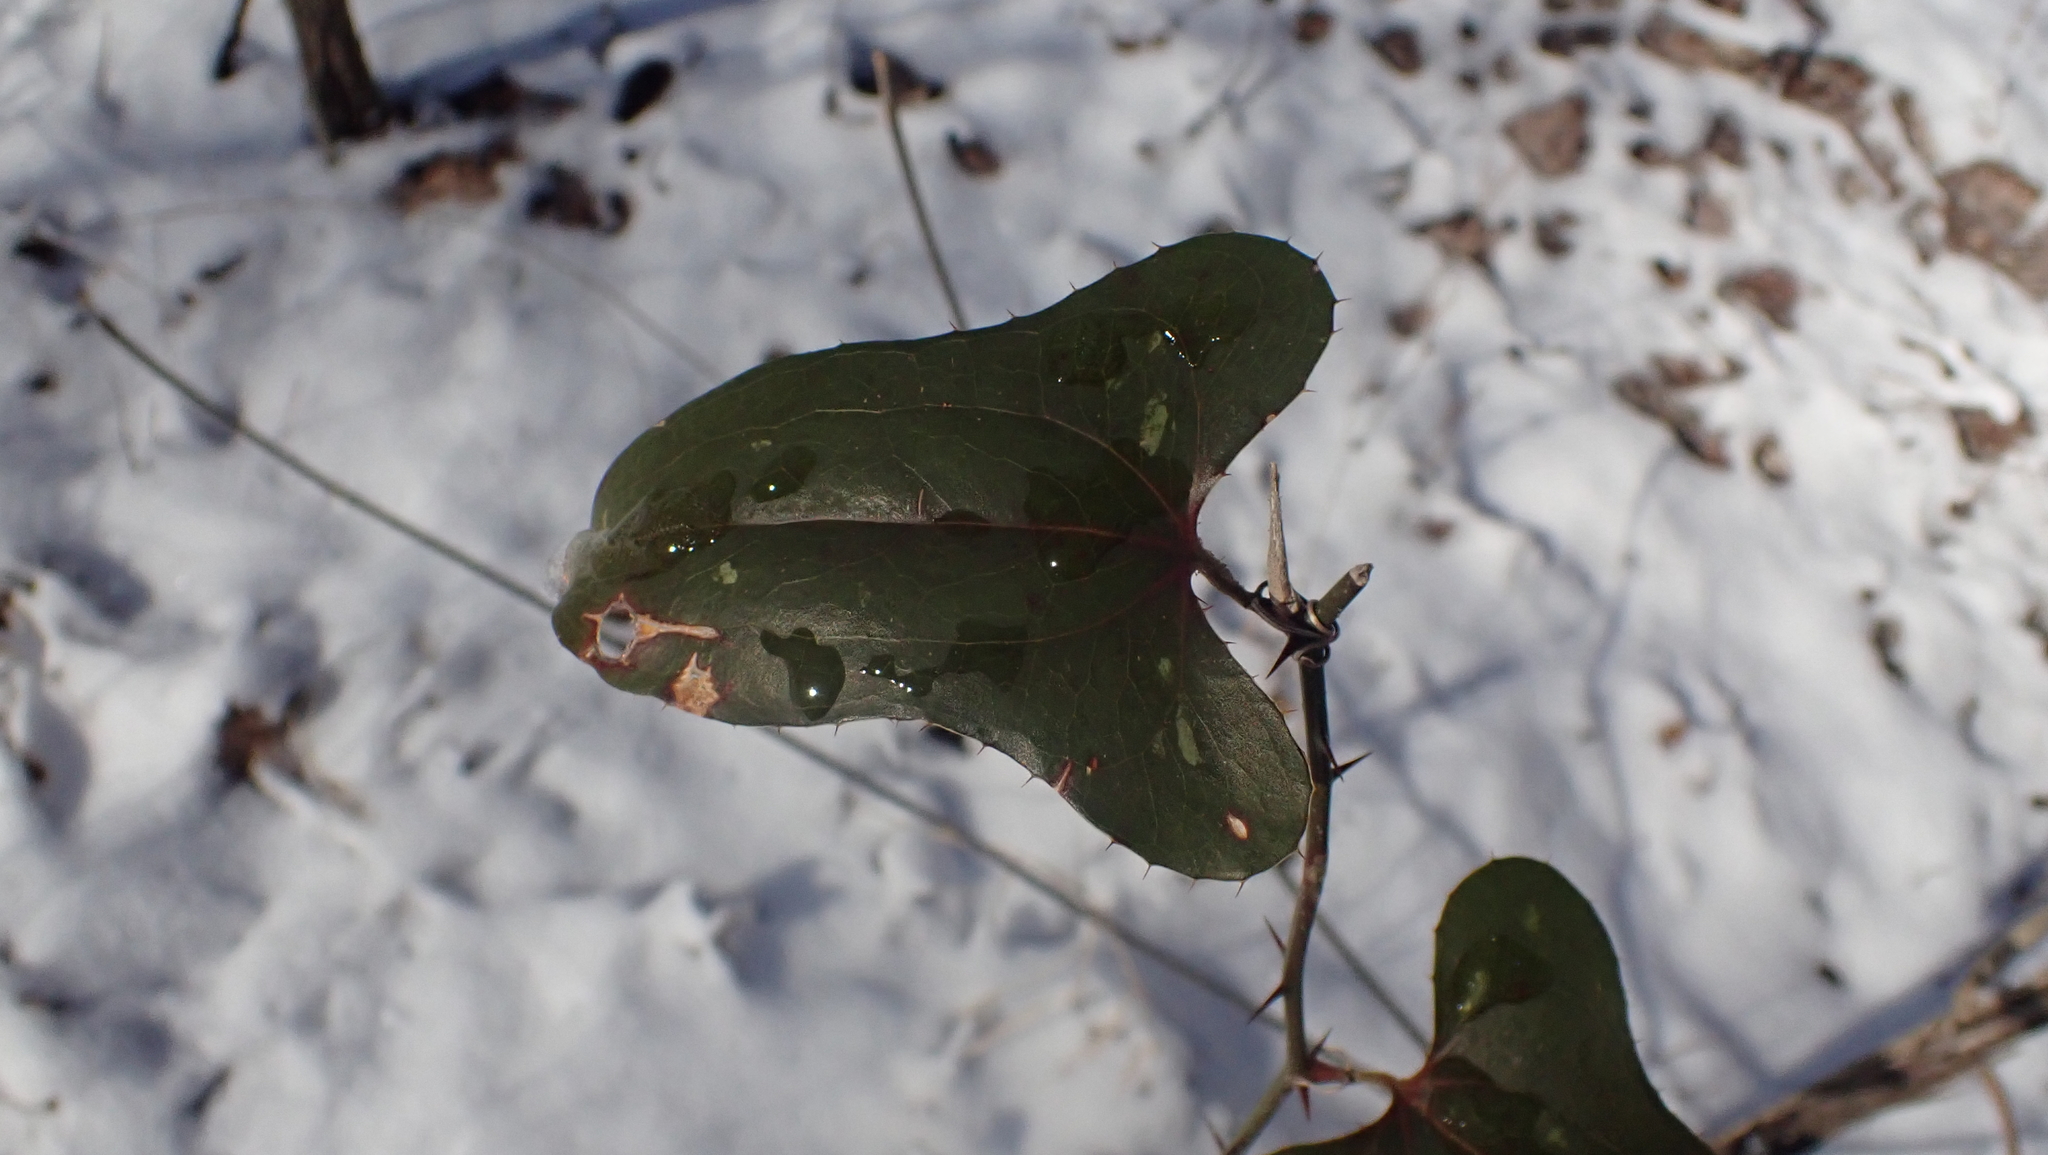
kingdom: Plantae
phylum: Tracheophyta
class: Liliopsida
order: Liliales
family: Smilacaceae
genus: Smilax
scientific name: Smilax bona-nox
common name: Catbrier
